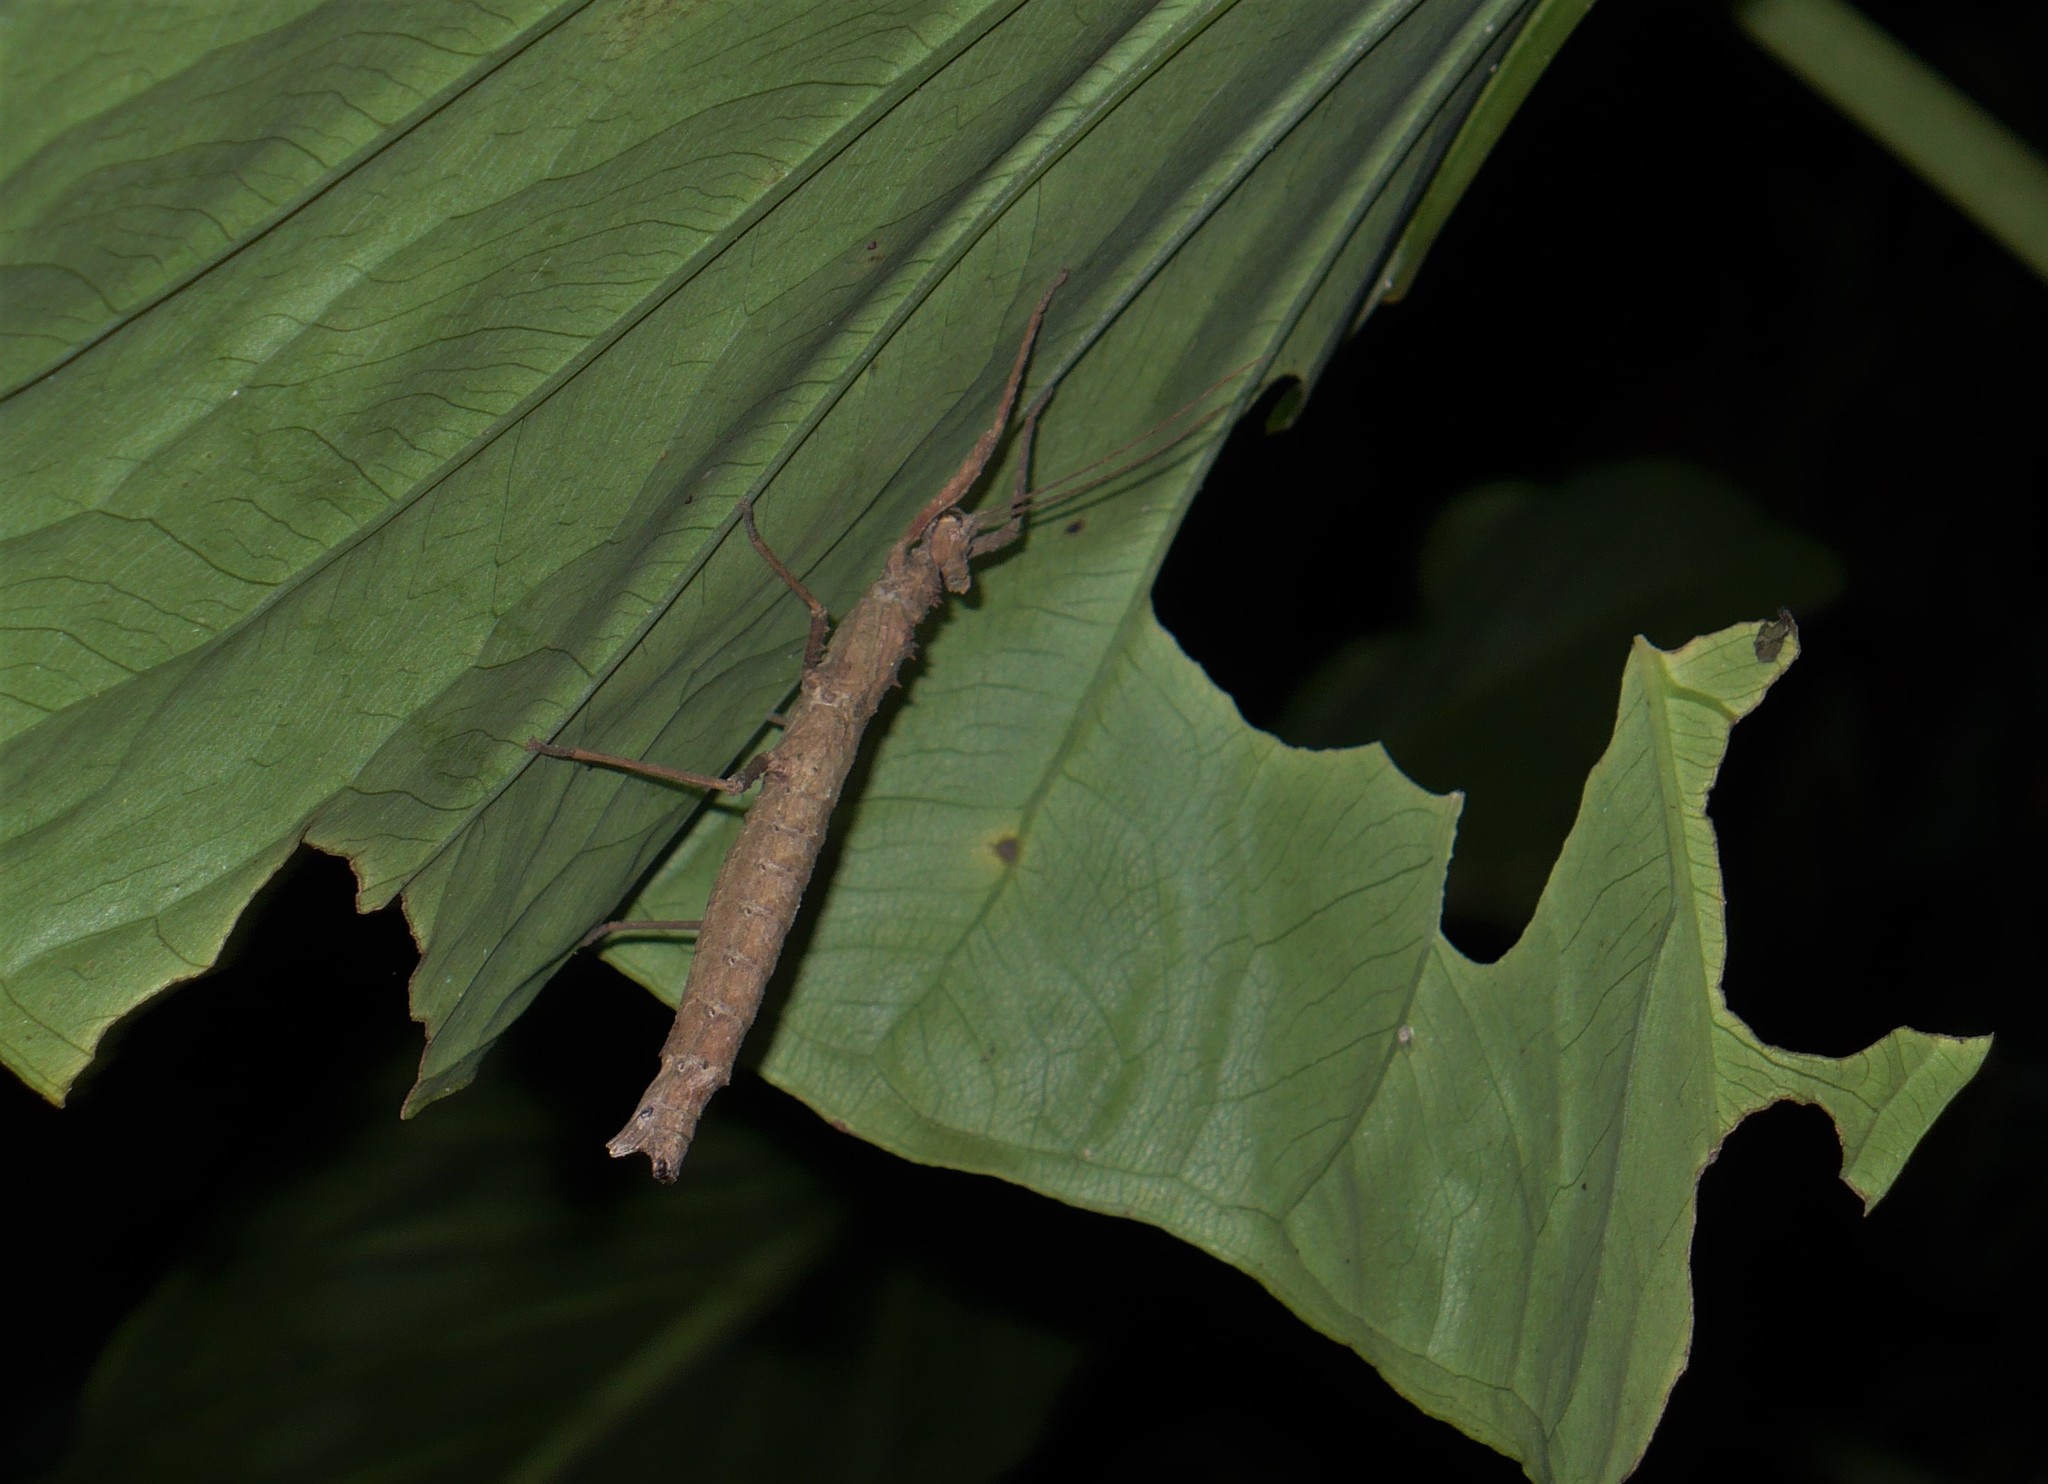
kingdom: Animalia
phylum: Arthropoda
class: Insecta
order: Phasmida
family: Pseudophasmatidae
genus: Creoxylus
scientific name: Creoxylus spinosus
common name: Trinidad log stick insect
